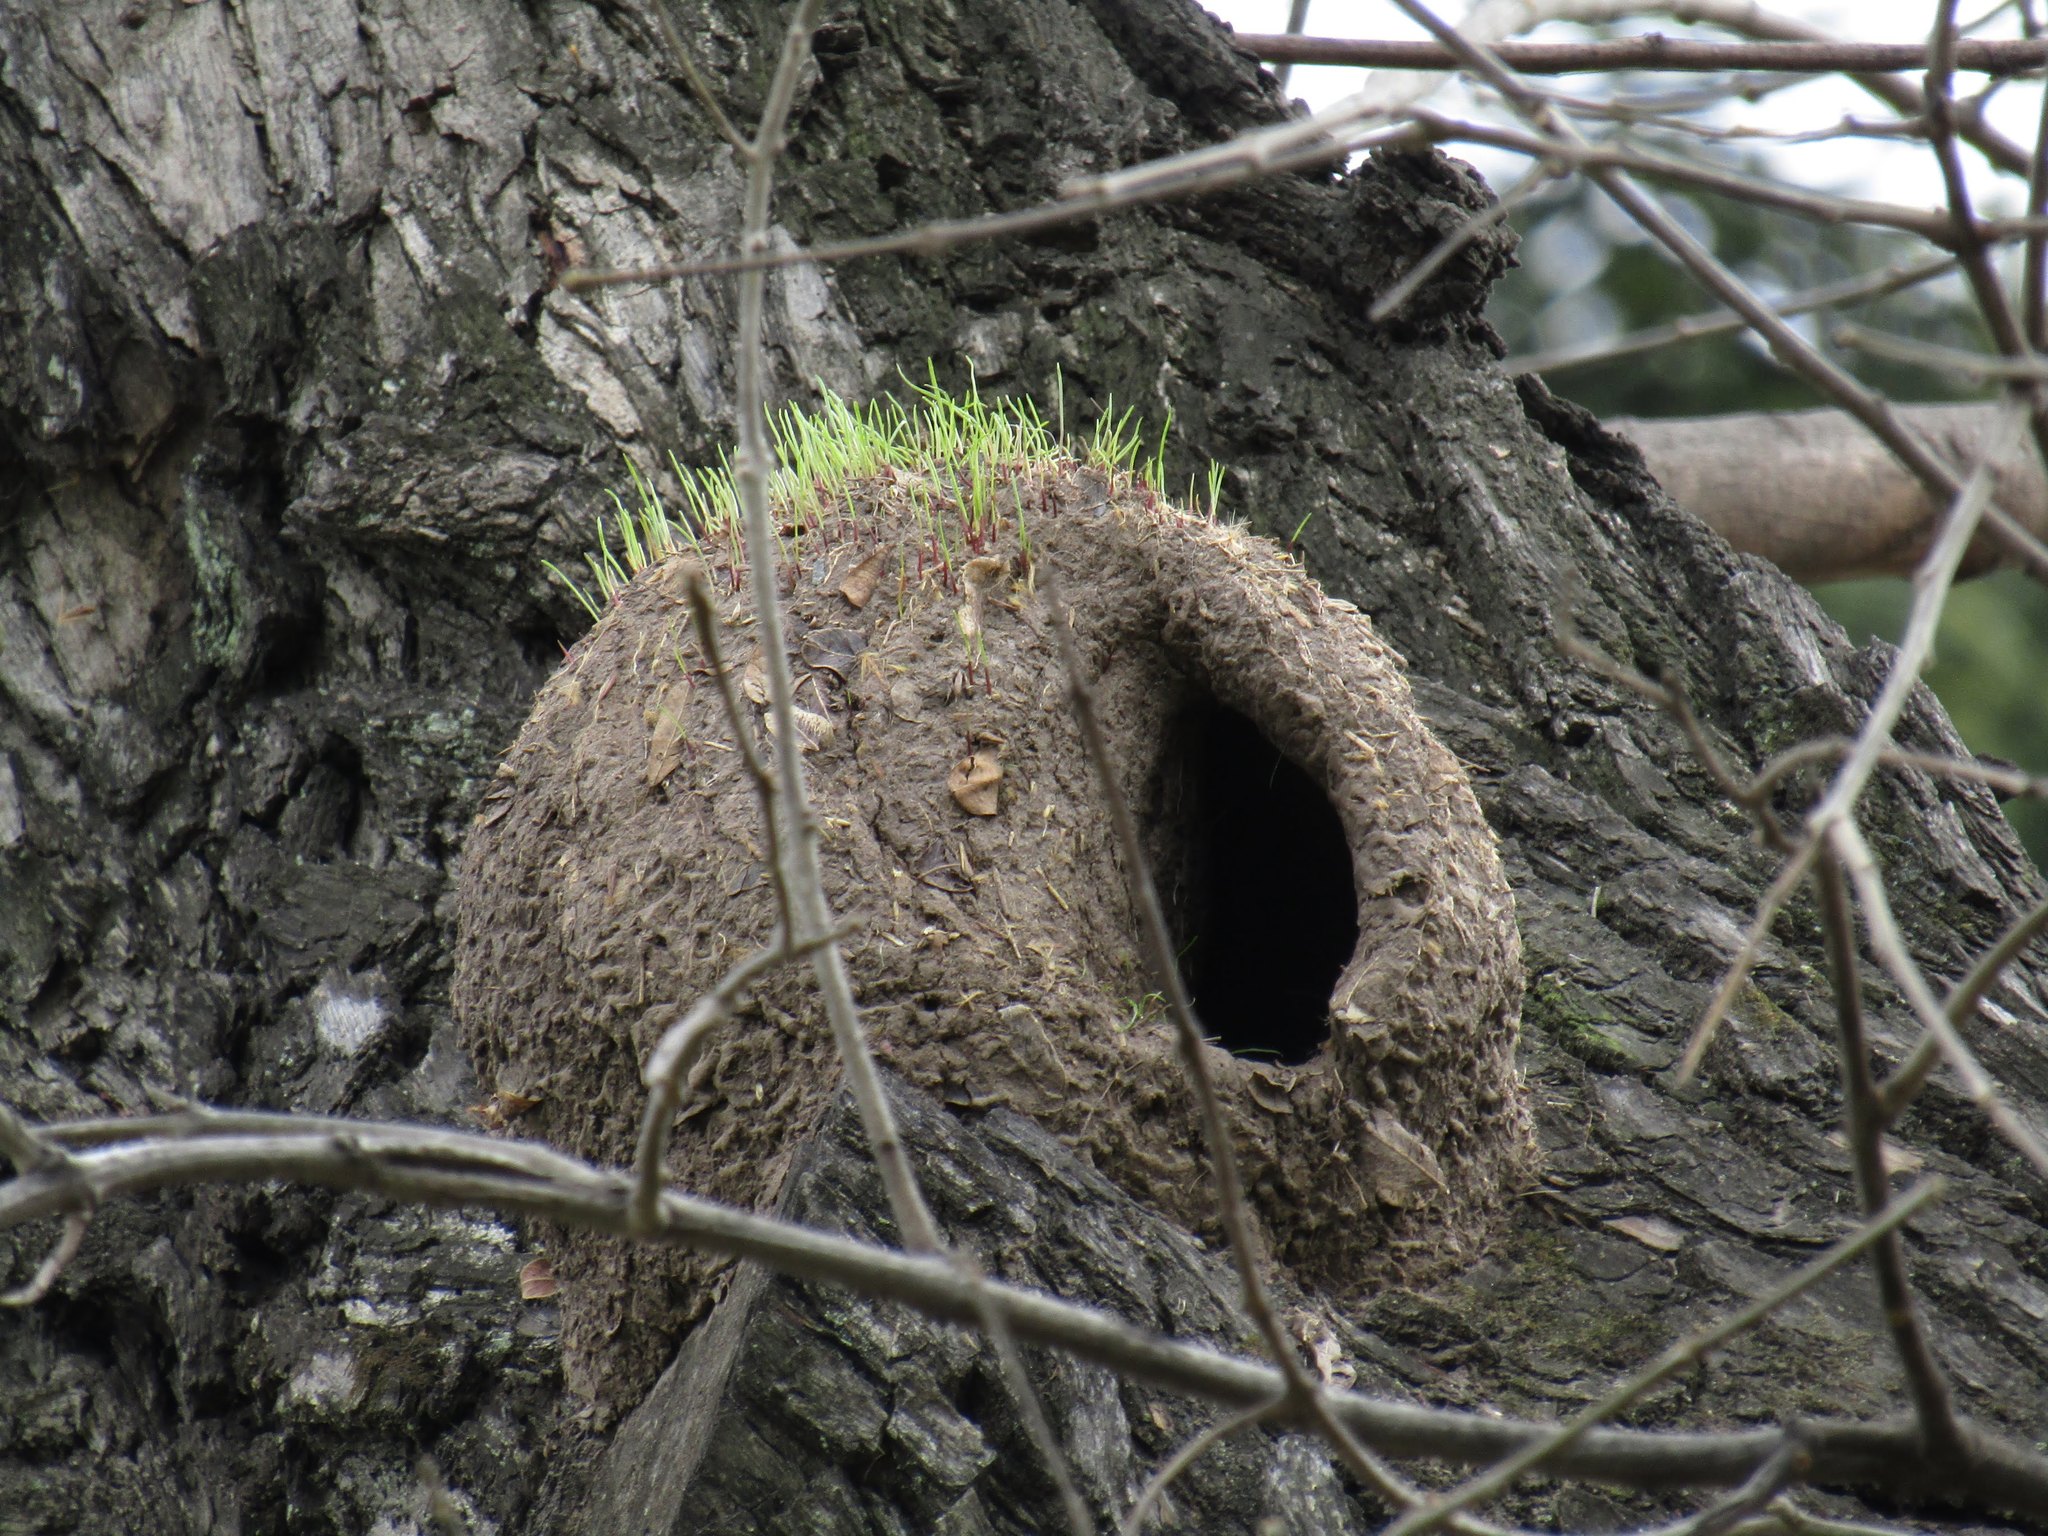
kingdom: Animalia
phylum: Chordata
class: Aves
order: Passeriformes
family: Furnariidae
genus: Furnarius
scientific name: Furnarius rufus
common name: Rufous hornero
